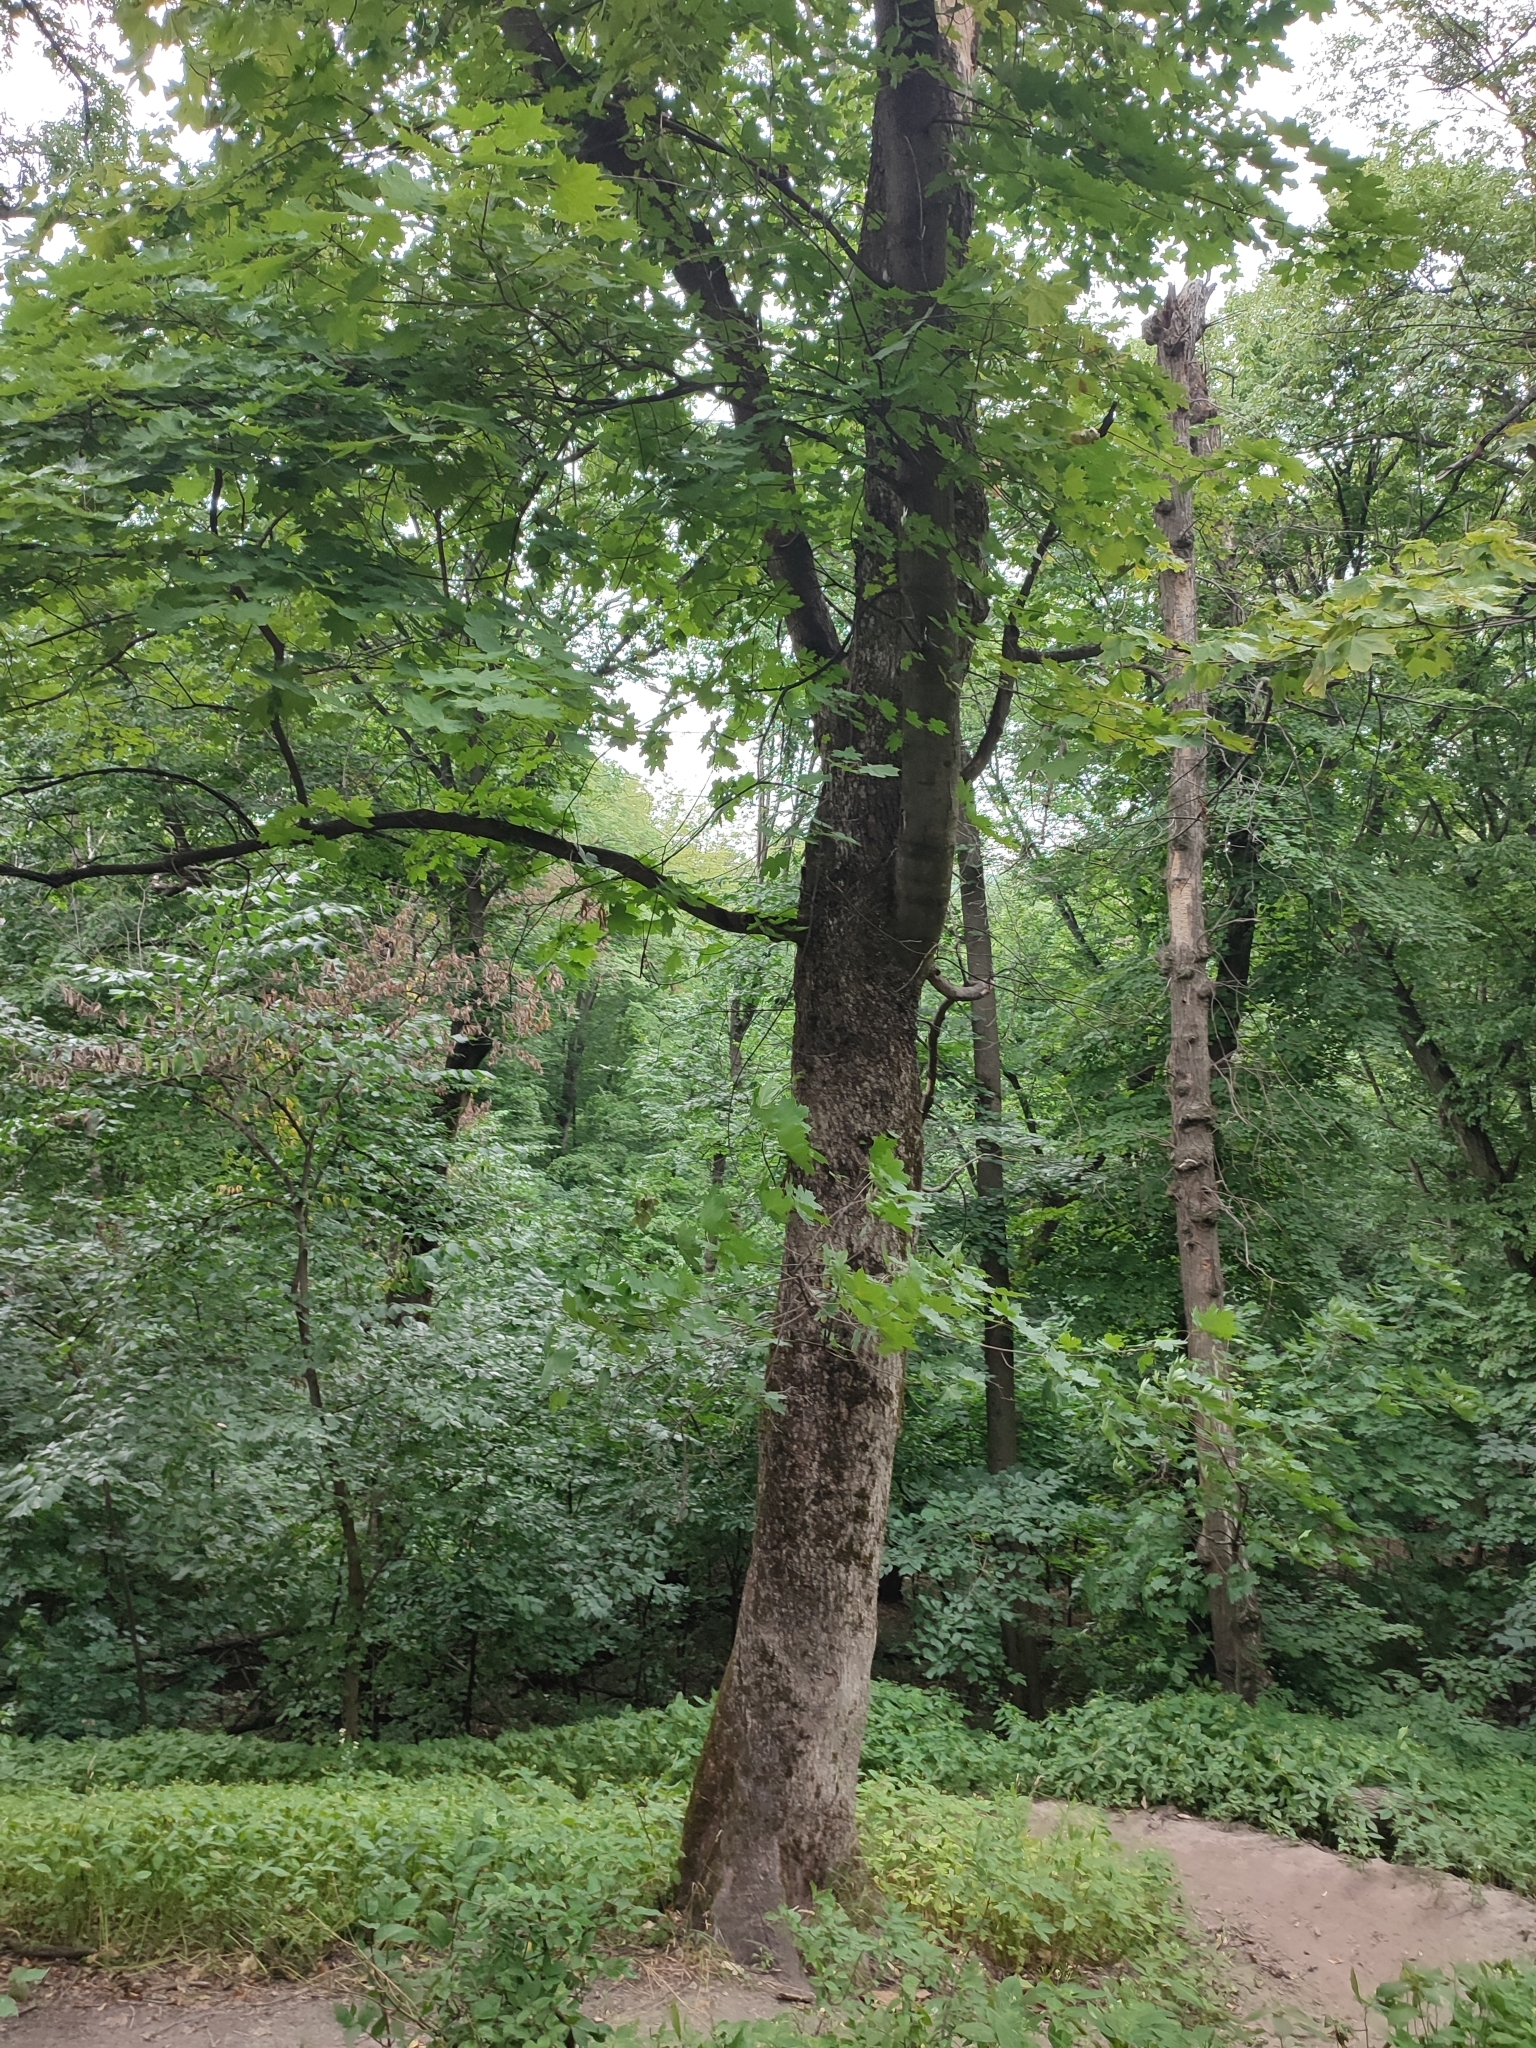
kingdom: Plantae
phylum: Tracheophyta
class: Magnoliopsida
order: Sapindales
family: Sapindaceae
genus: Acer
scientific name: Acer platanoides
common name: Norway maple
